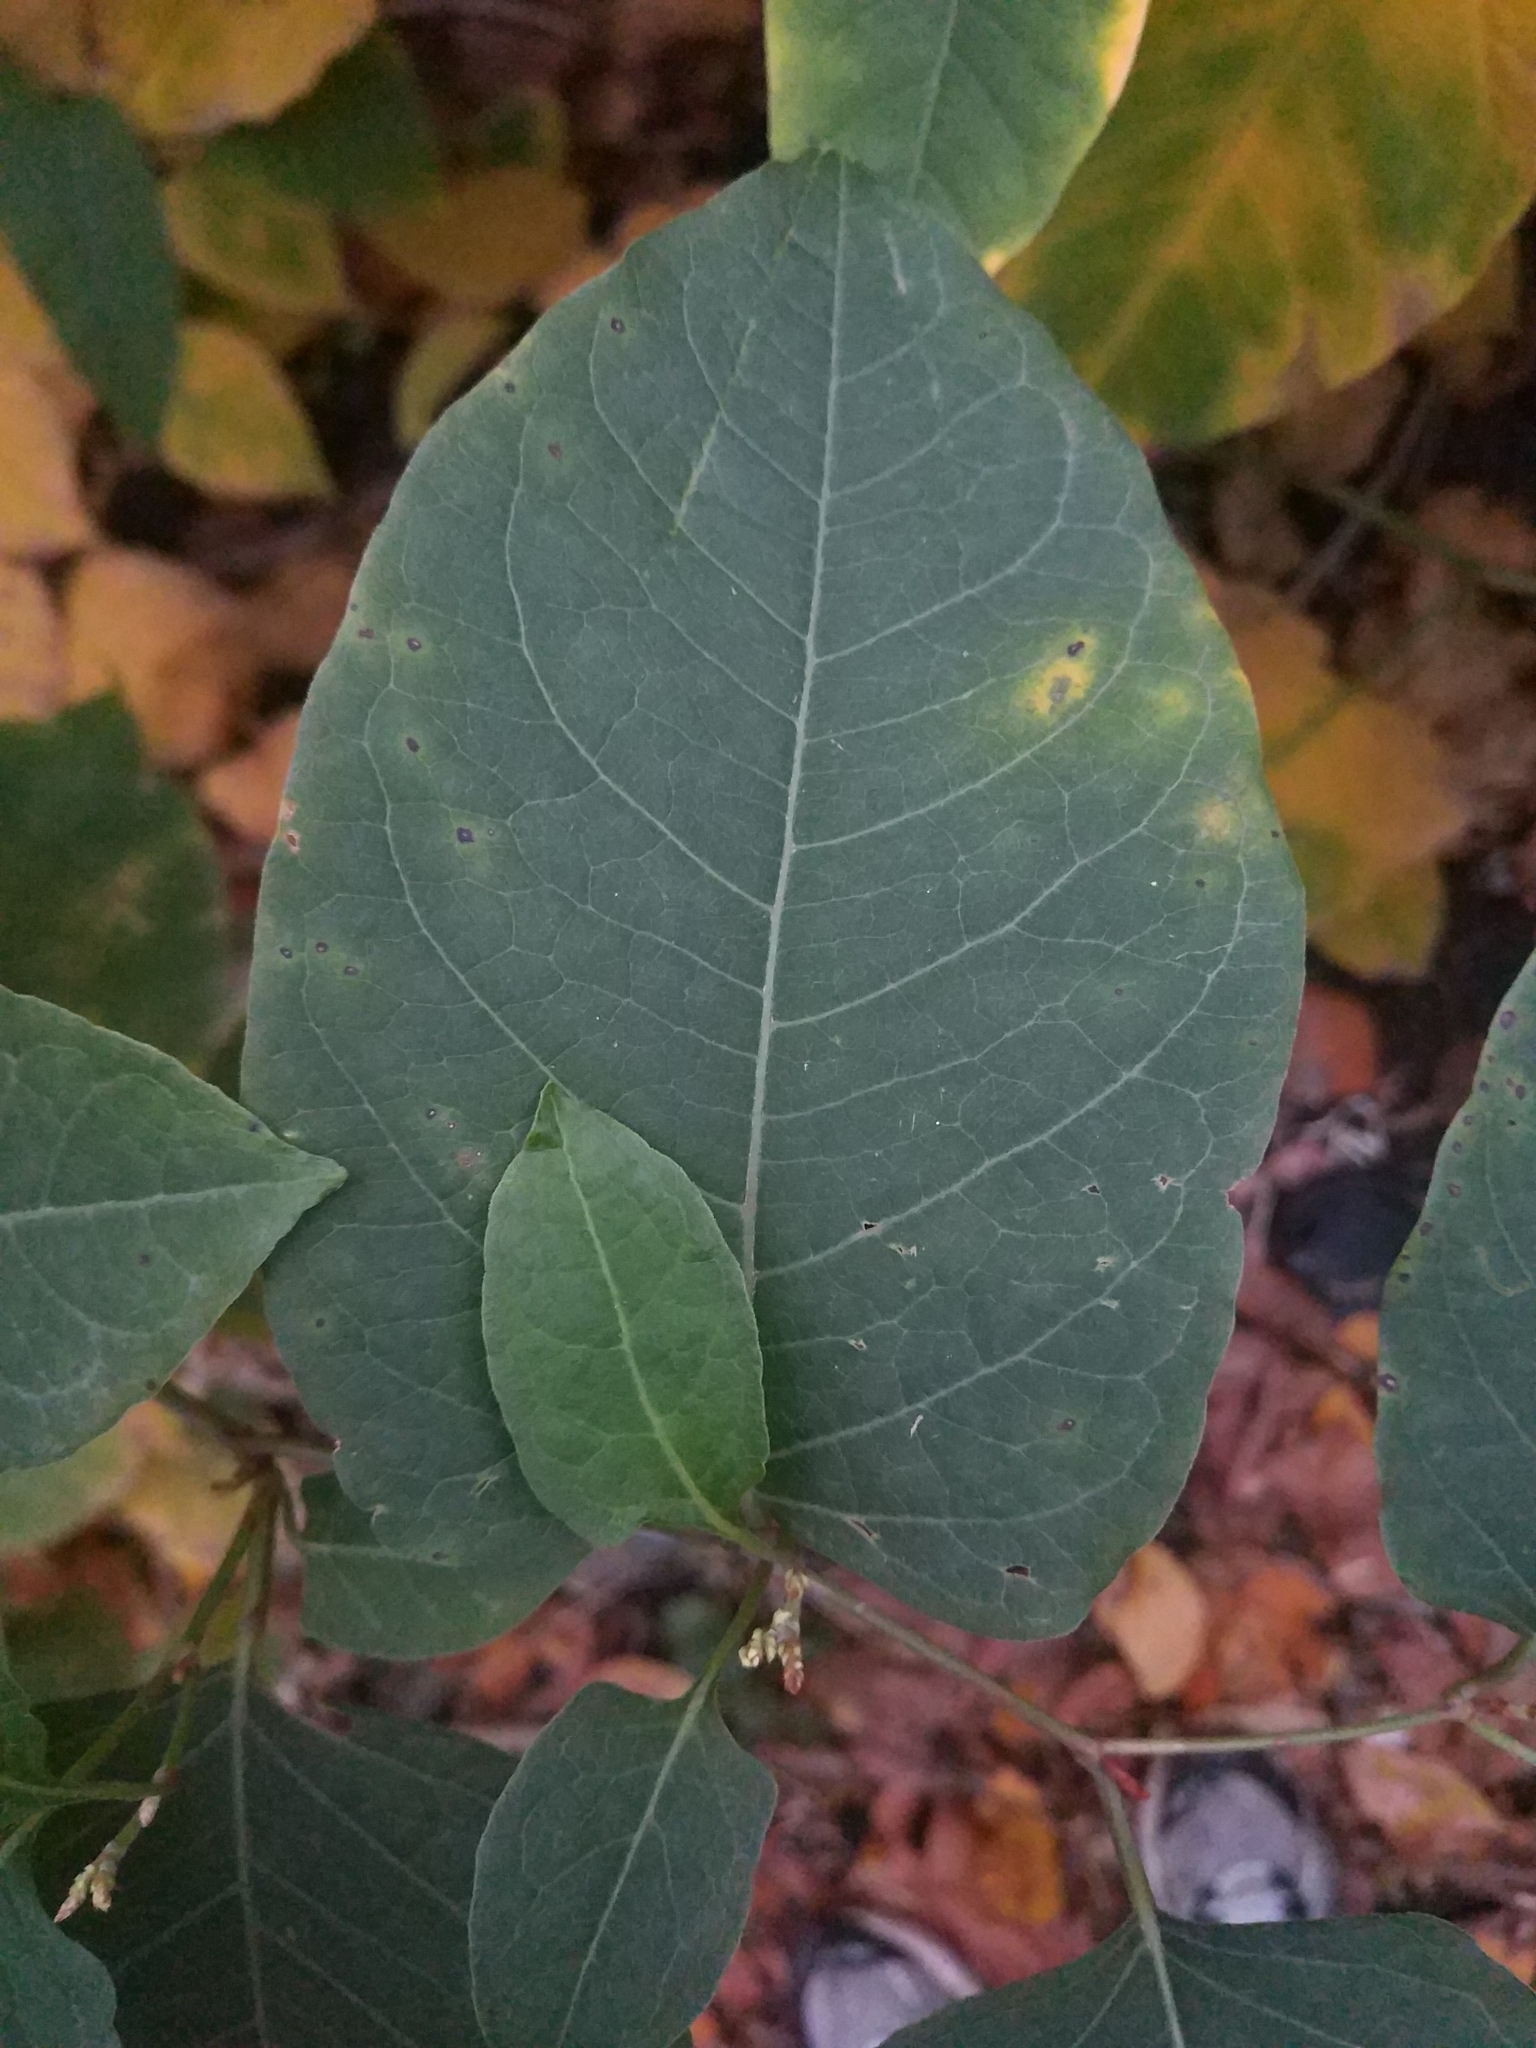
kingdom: Plantae
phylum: Tracheophyta
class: Magnoliopsida
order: Caryophyllales
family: Polygonaceae
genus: Reynoutria
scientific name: Reynoutria bohemica
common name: Bohemian knotweed
